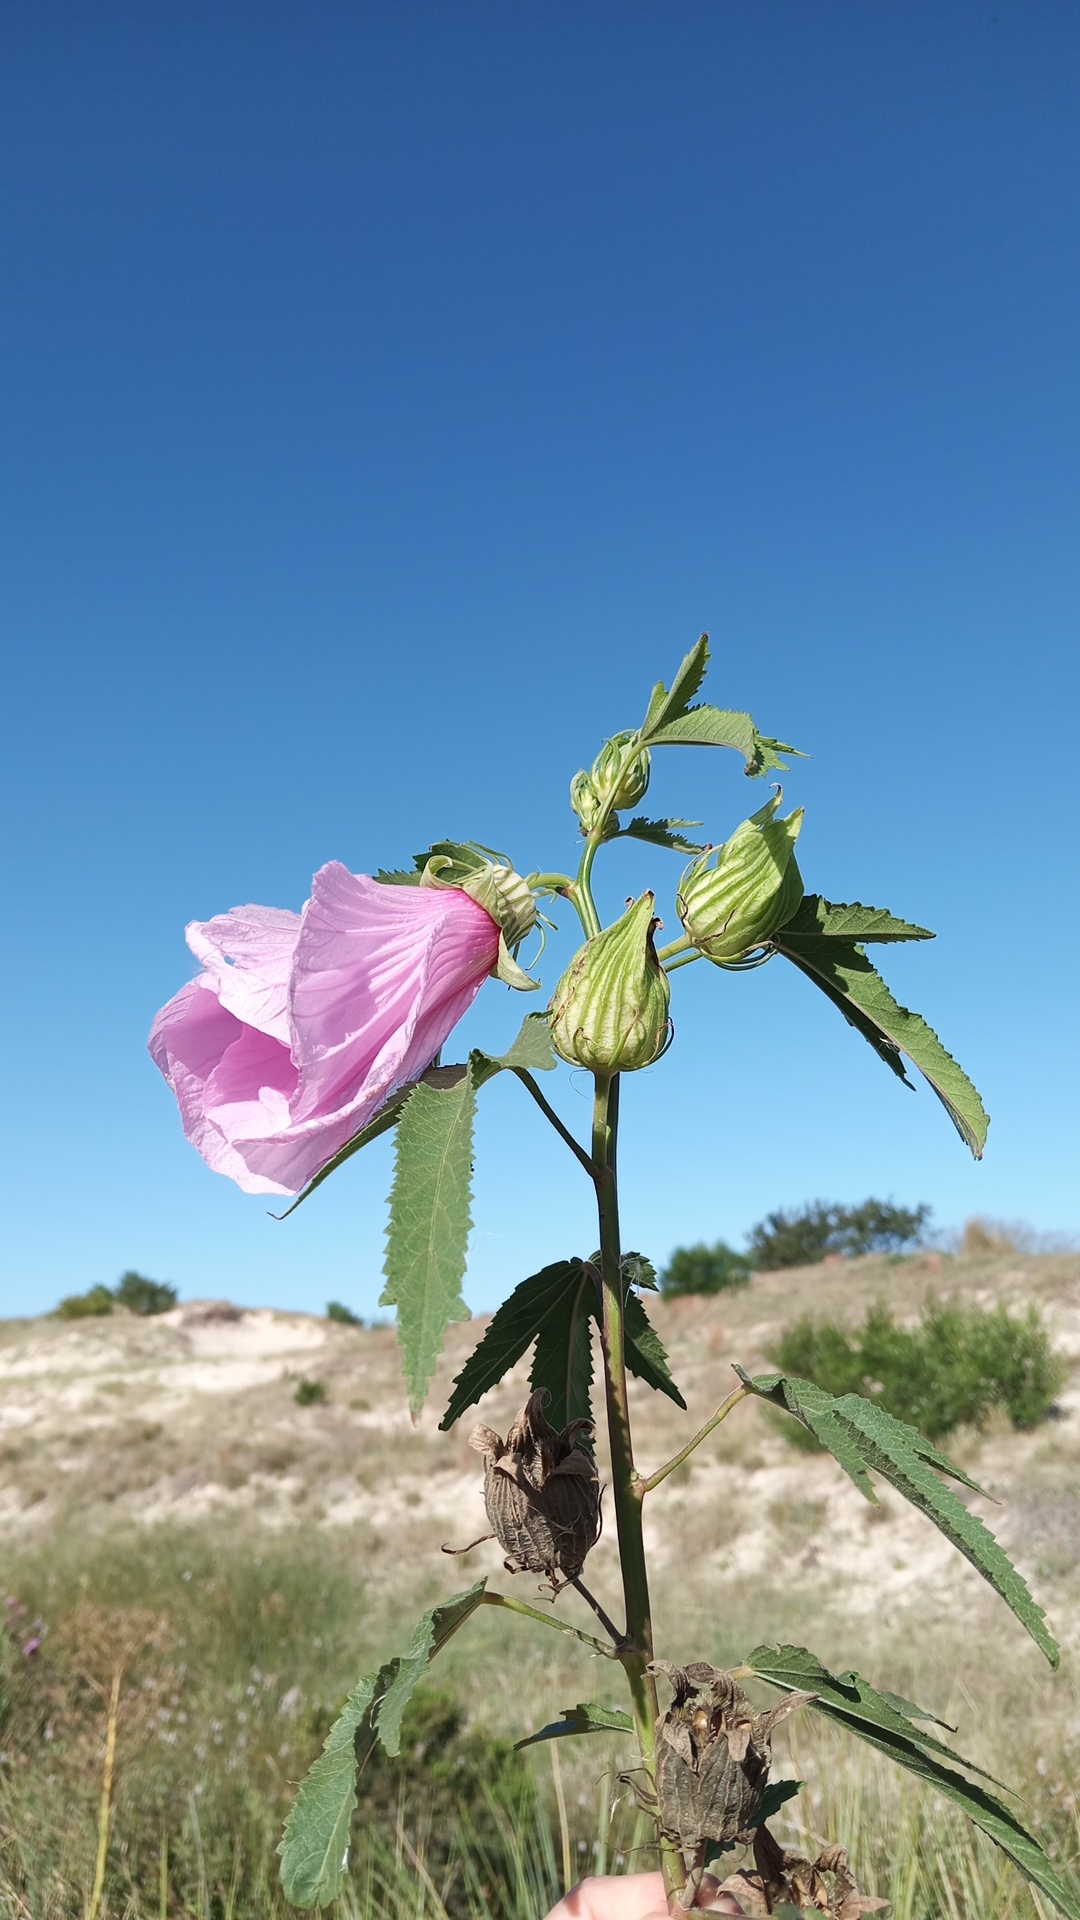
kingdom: Plantae
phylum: Tracheophyta
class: Magnoliopsida
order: Malvales
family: Malvaceae
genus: Hibiscus
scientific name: Hibiscus striatus
